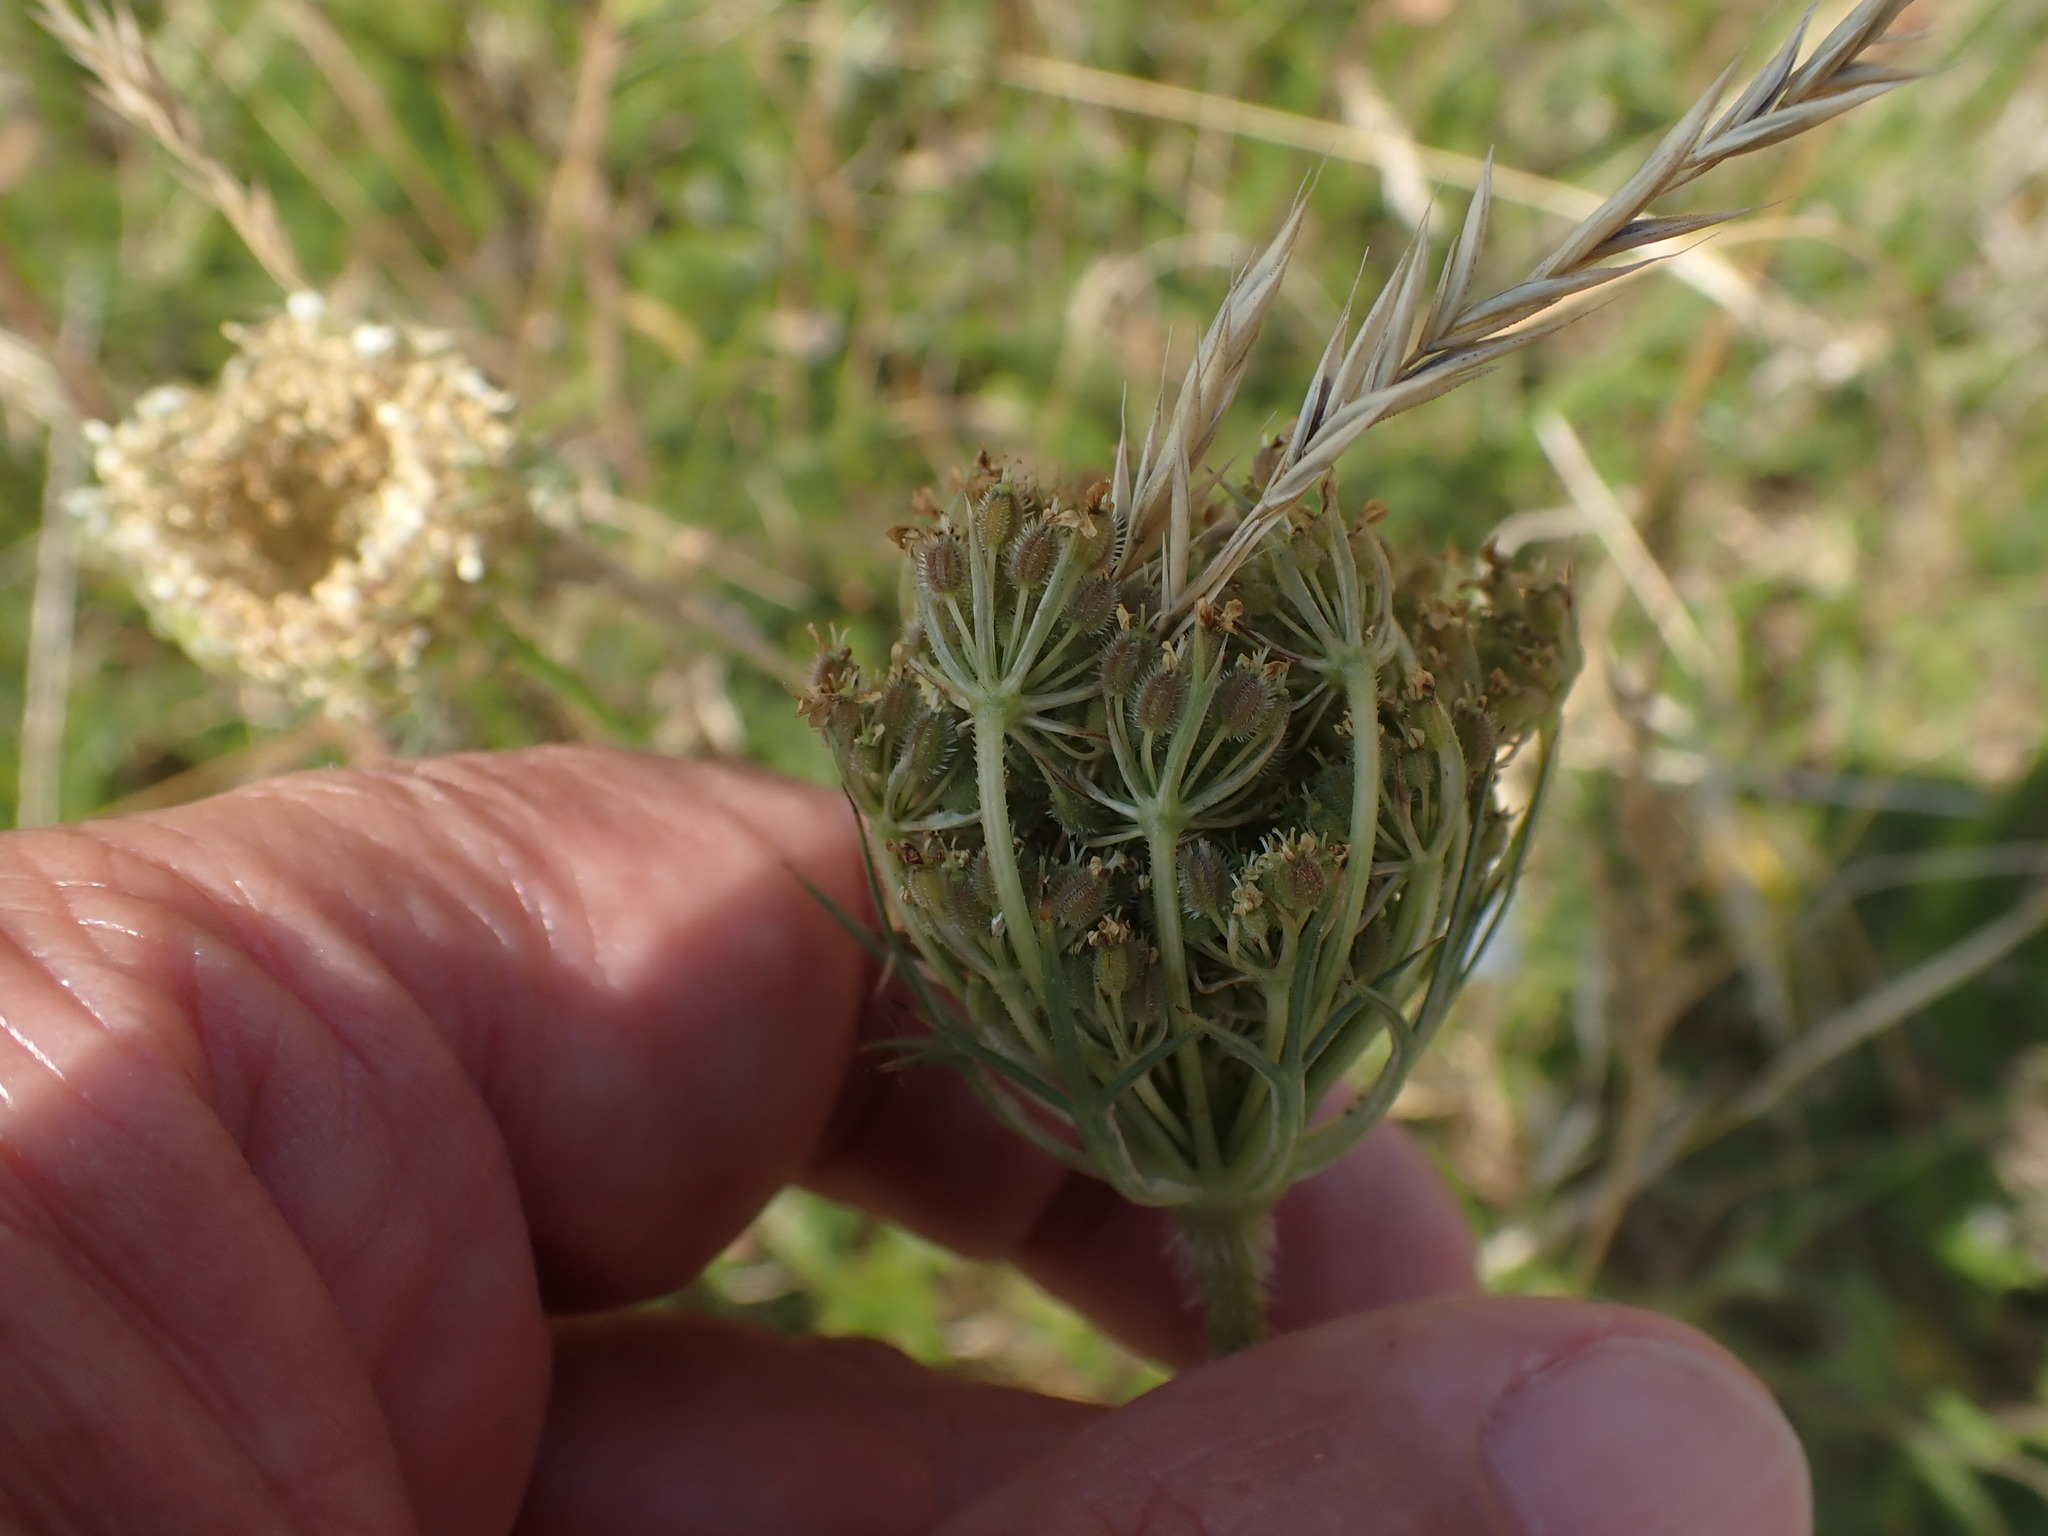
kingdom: Plantae
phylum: Tracheophyta
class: Magnoliopsida
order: Apiales
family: Apiaceae
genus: Daucus
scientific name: Daucus carota
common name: Wild carrot
